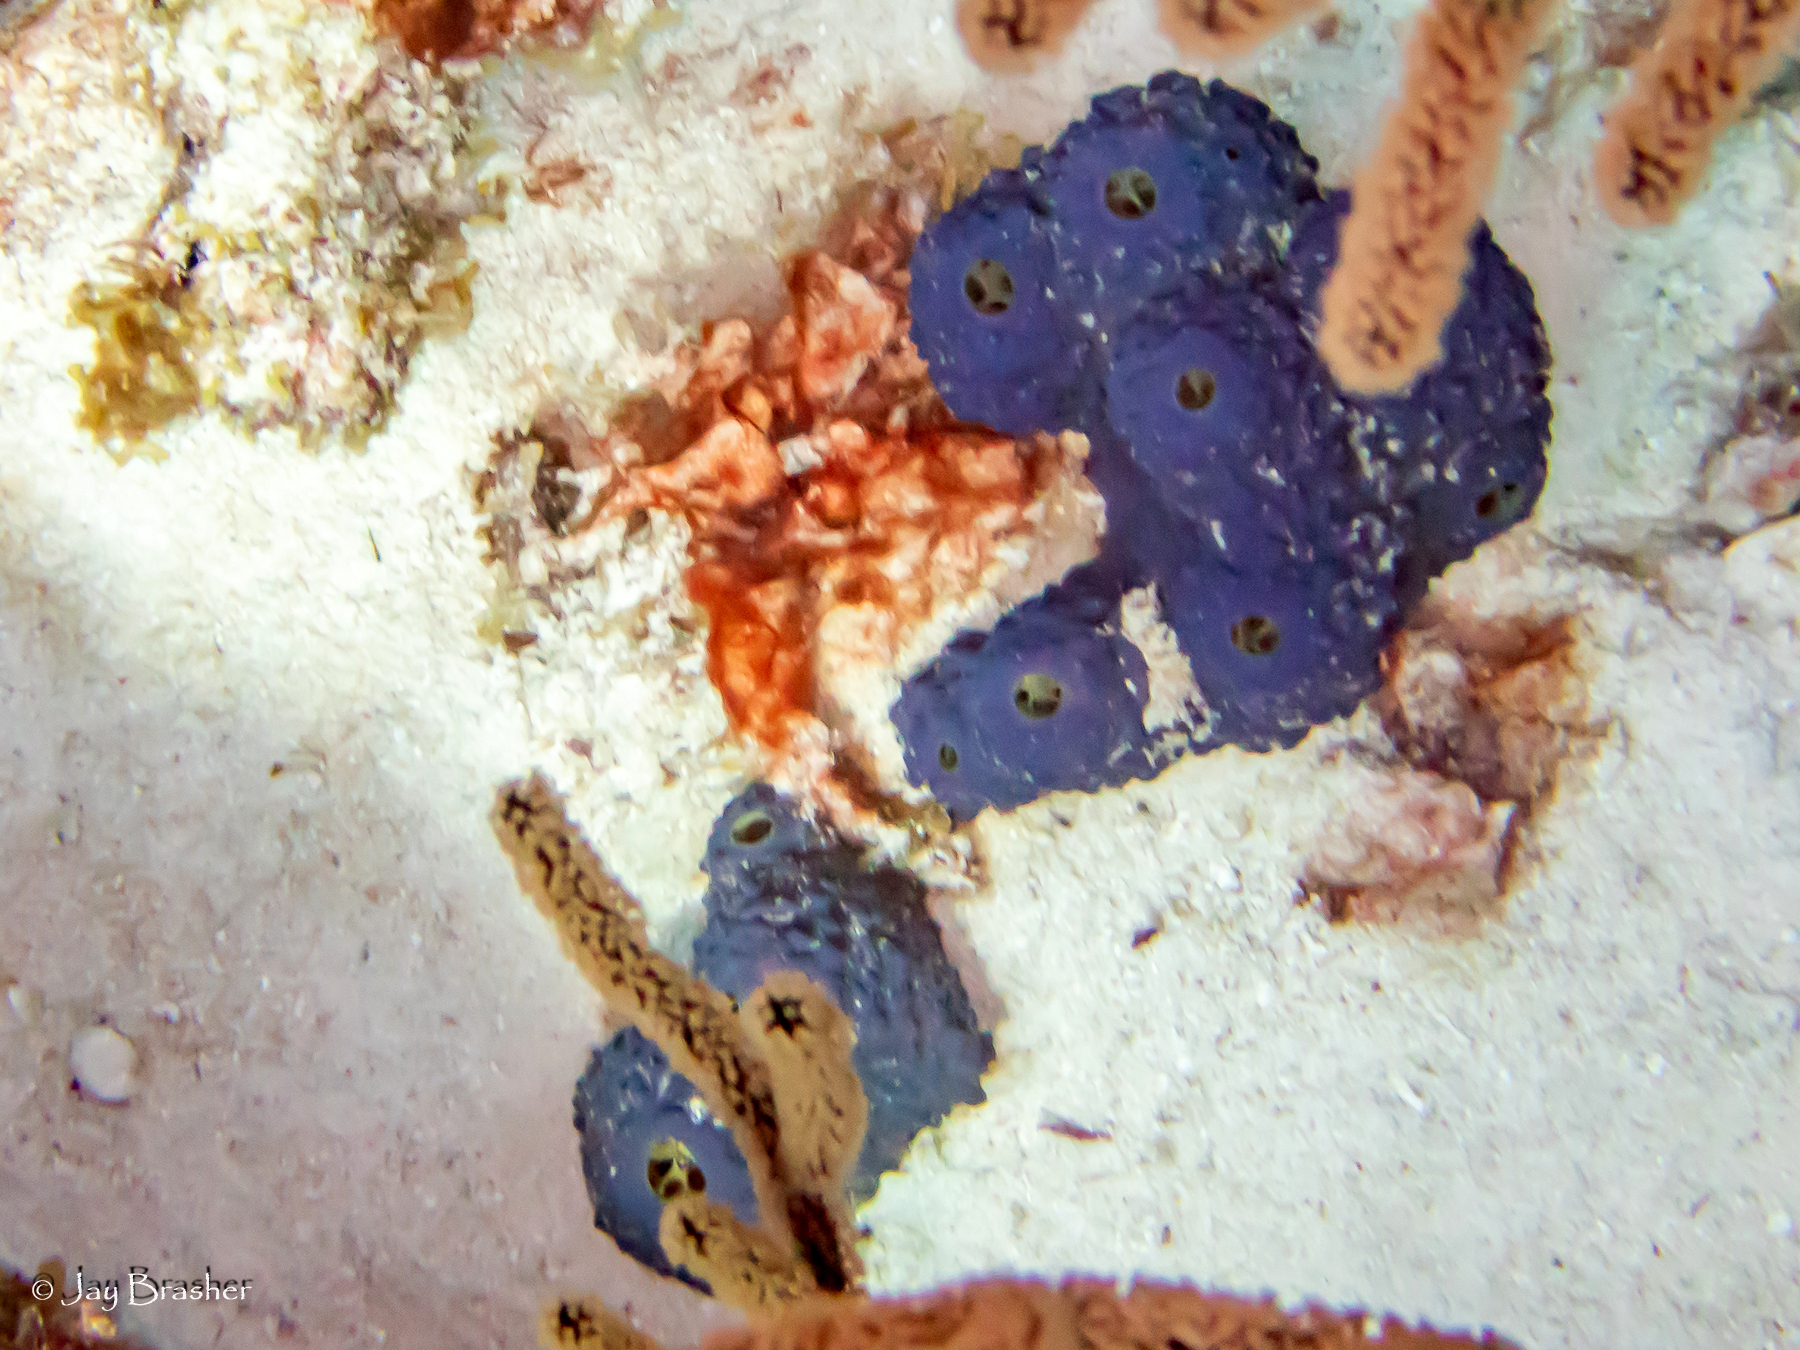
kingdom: Animalia
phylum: Porifera
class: Demospongiae
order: Verongiida
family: Aplysinidae
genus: Aiolochroia
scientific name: Aiolochroia crassa
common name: Branching tube sponge
